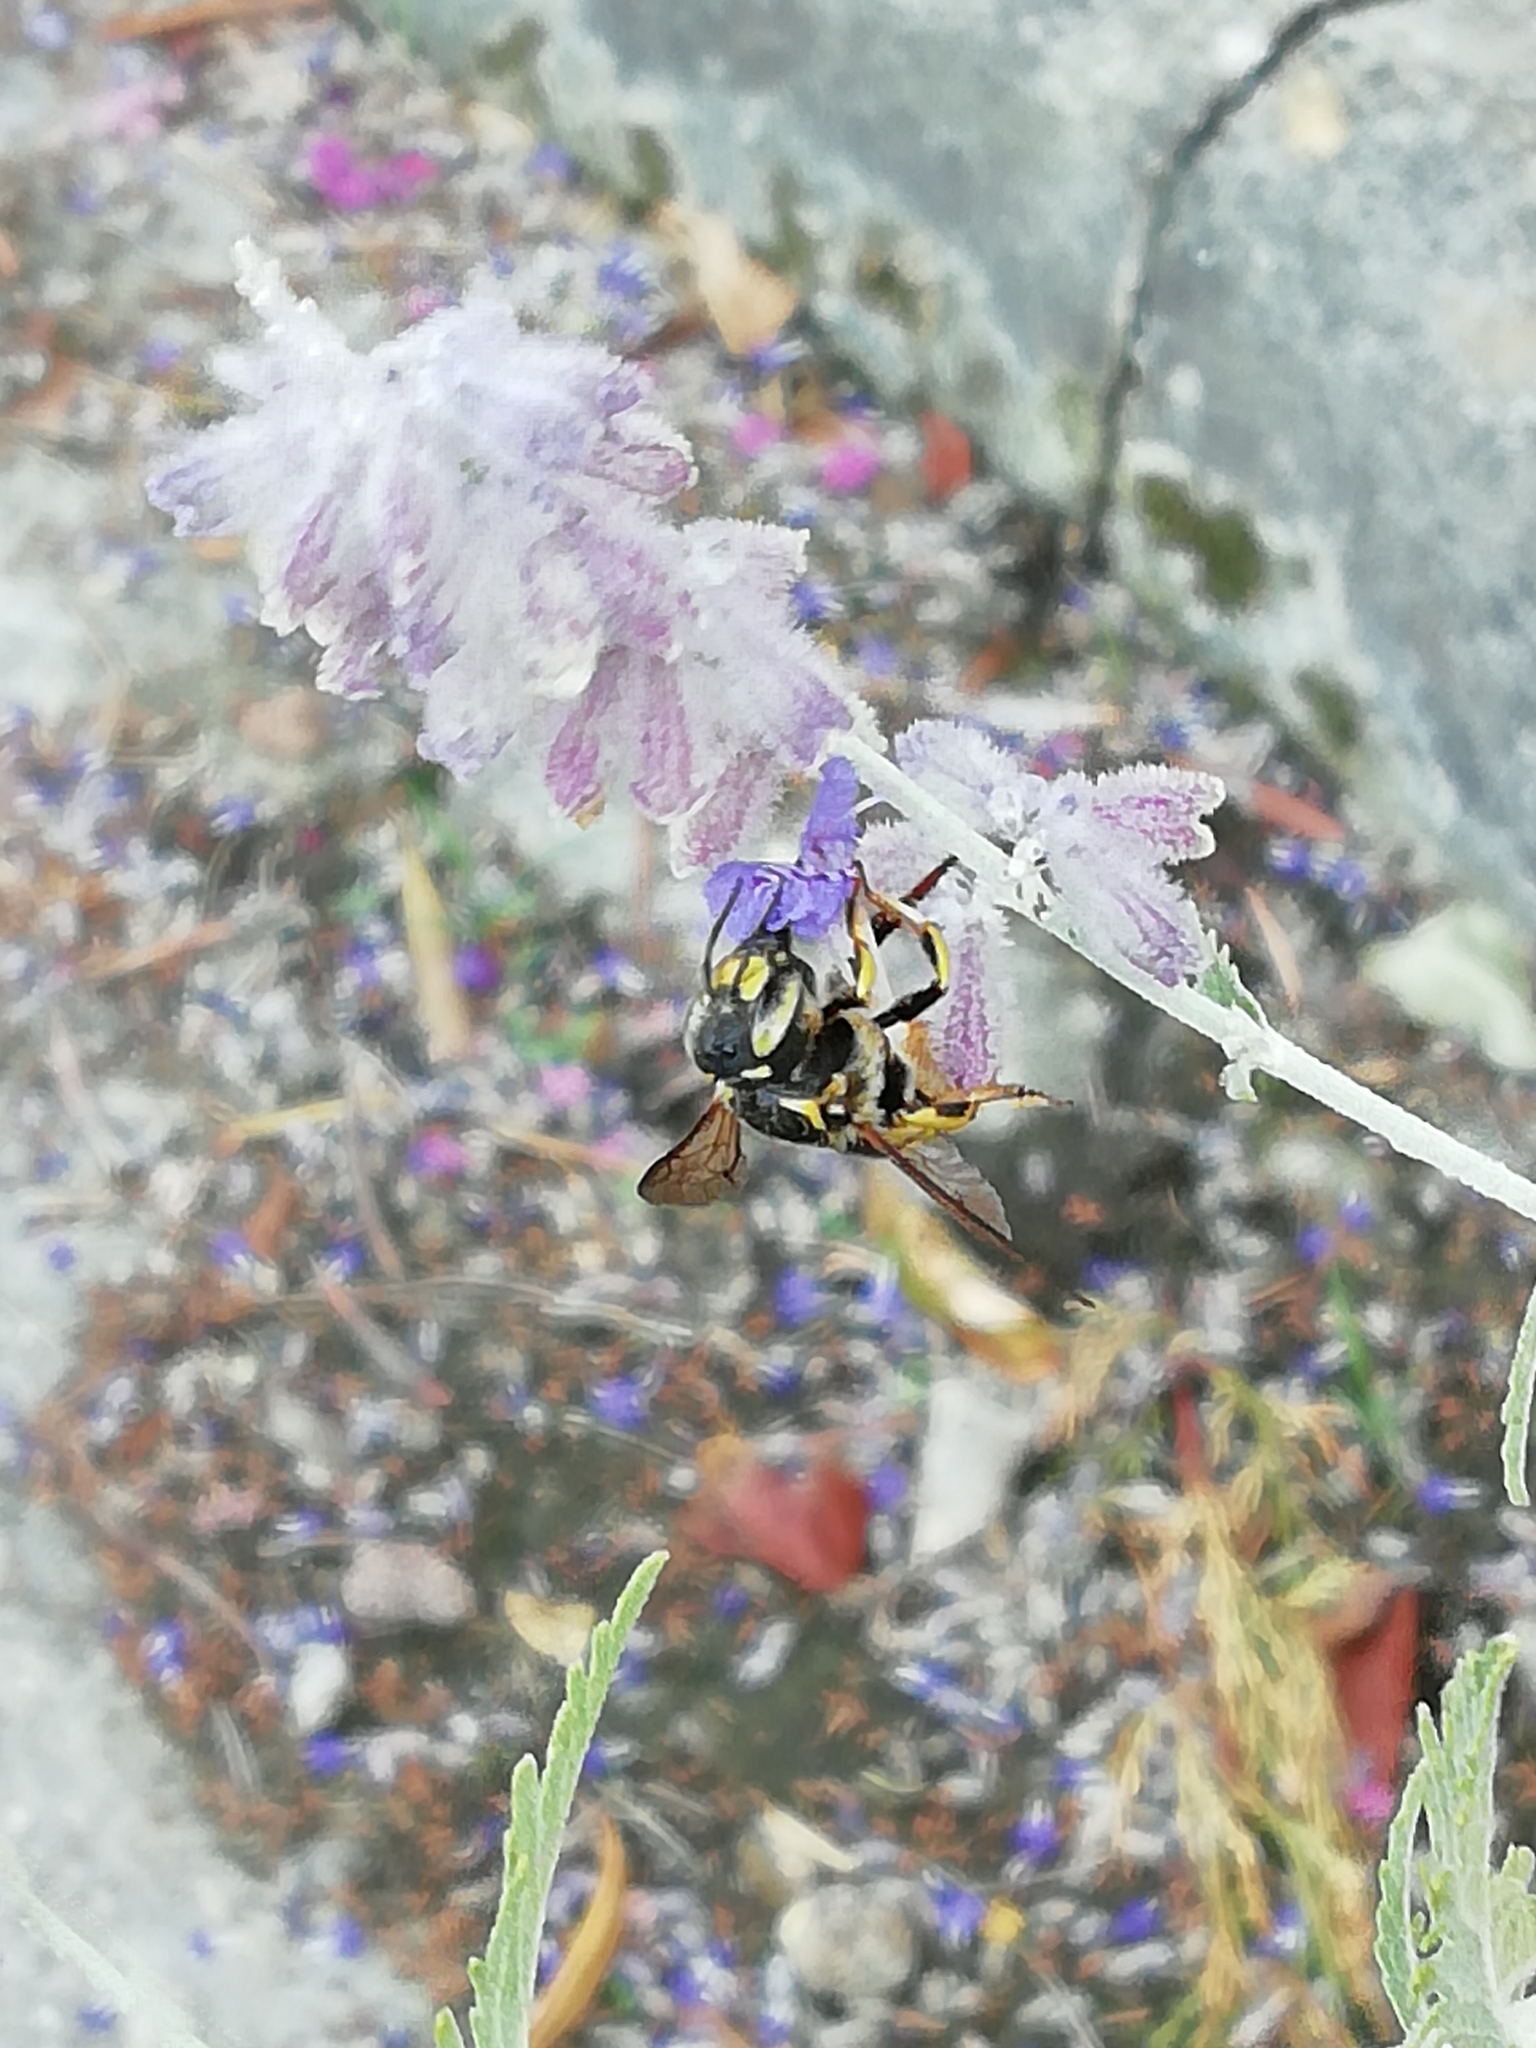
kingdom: Animalia
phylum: Arthropoda
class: Insecta
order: Hymenoptera
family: Megachilidae
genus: Anthidium
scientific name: Anthidium florentinum
